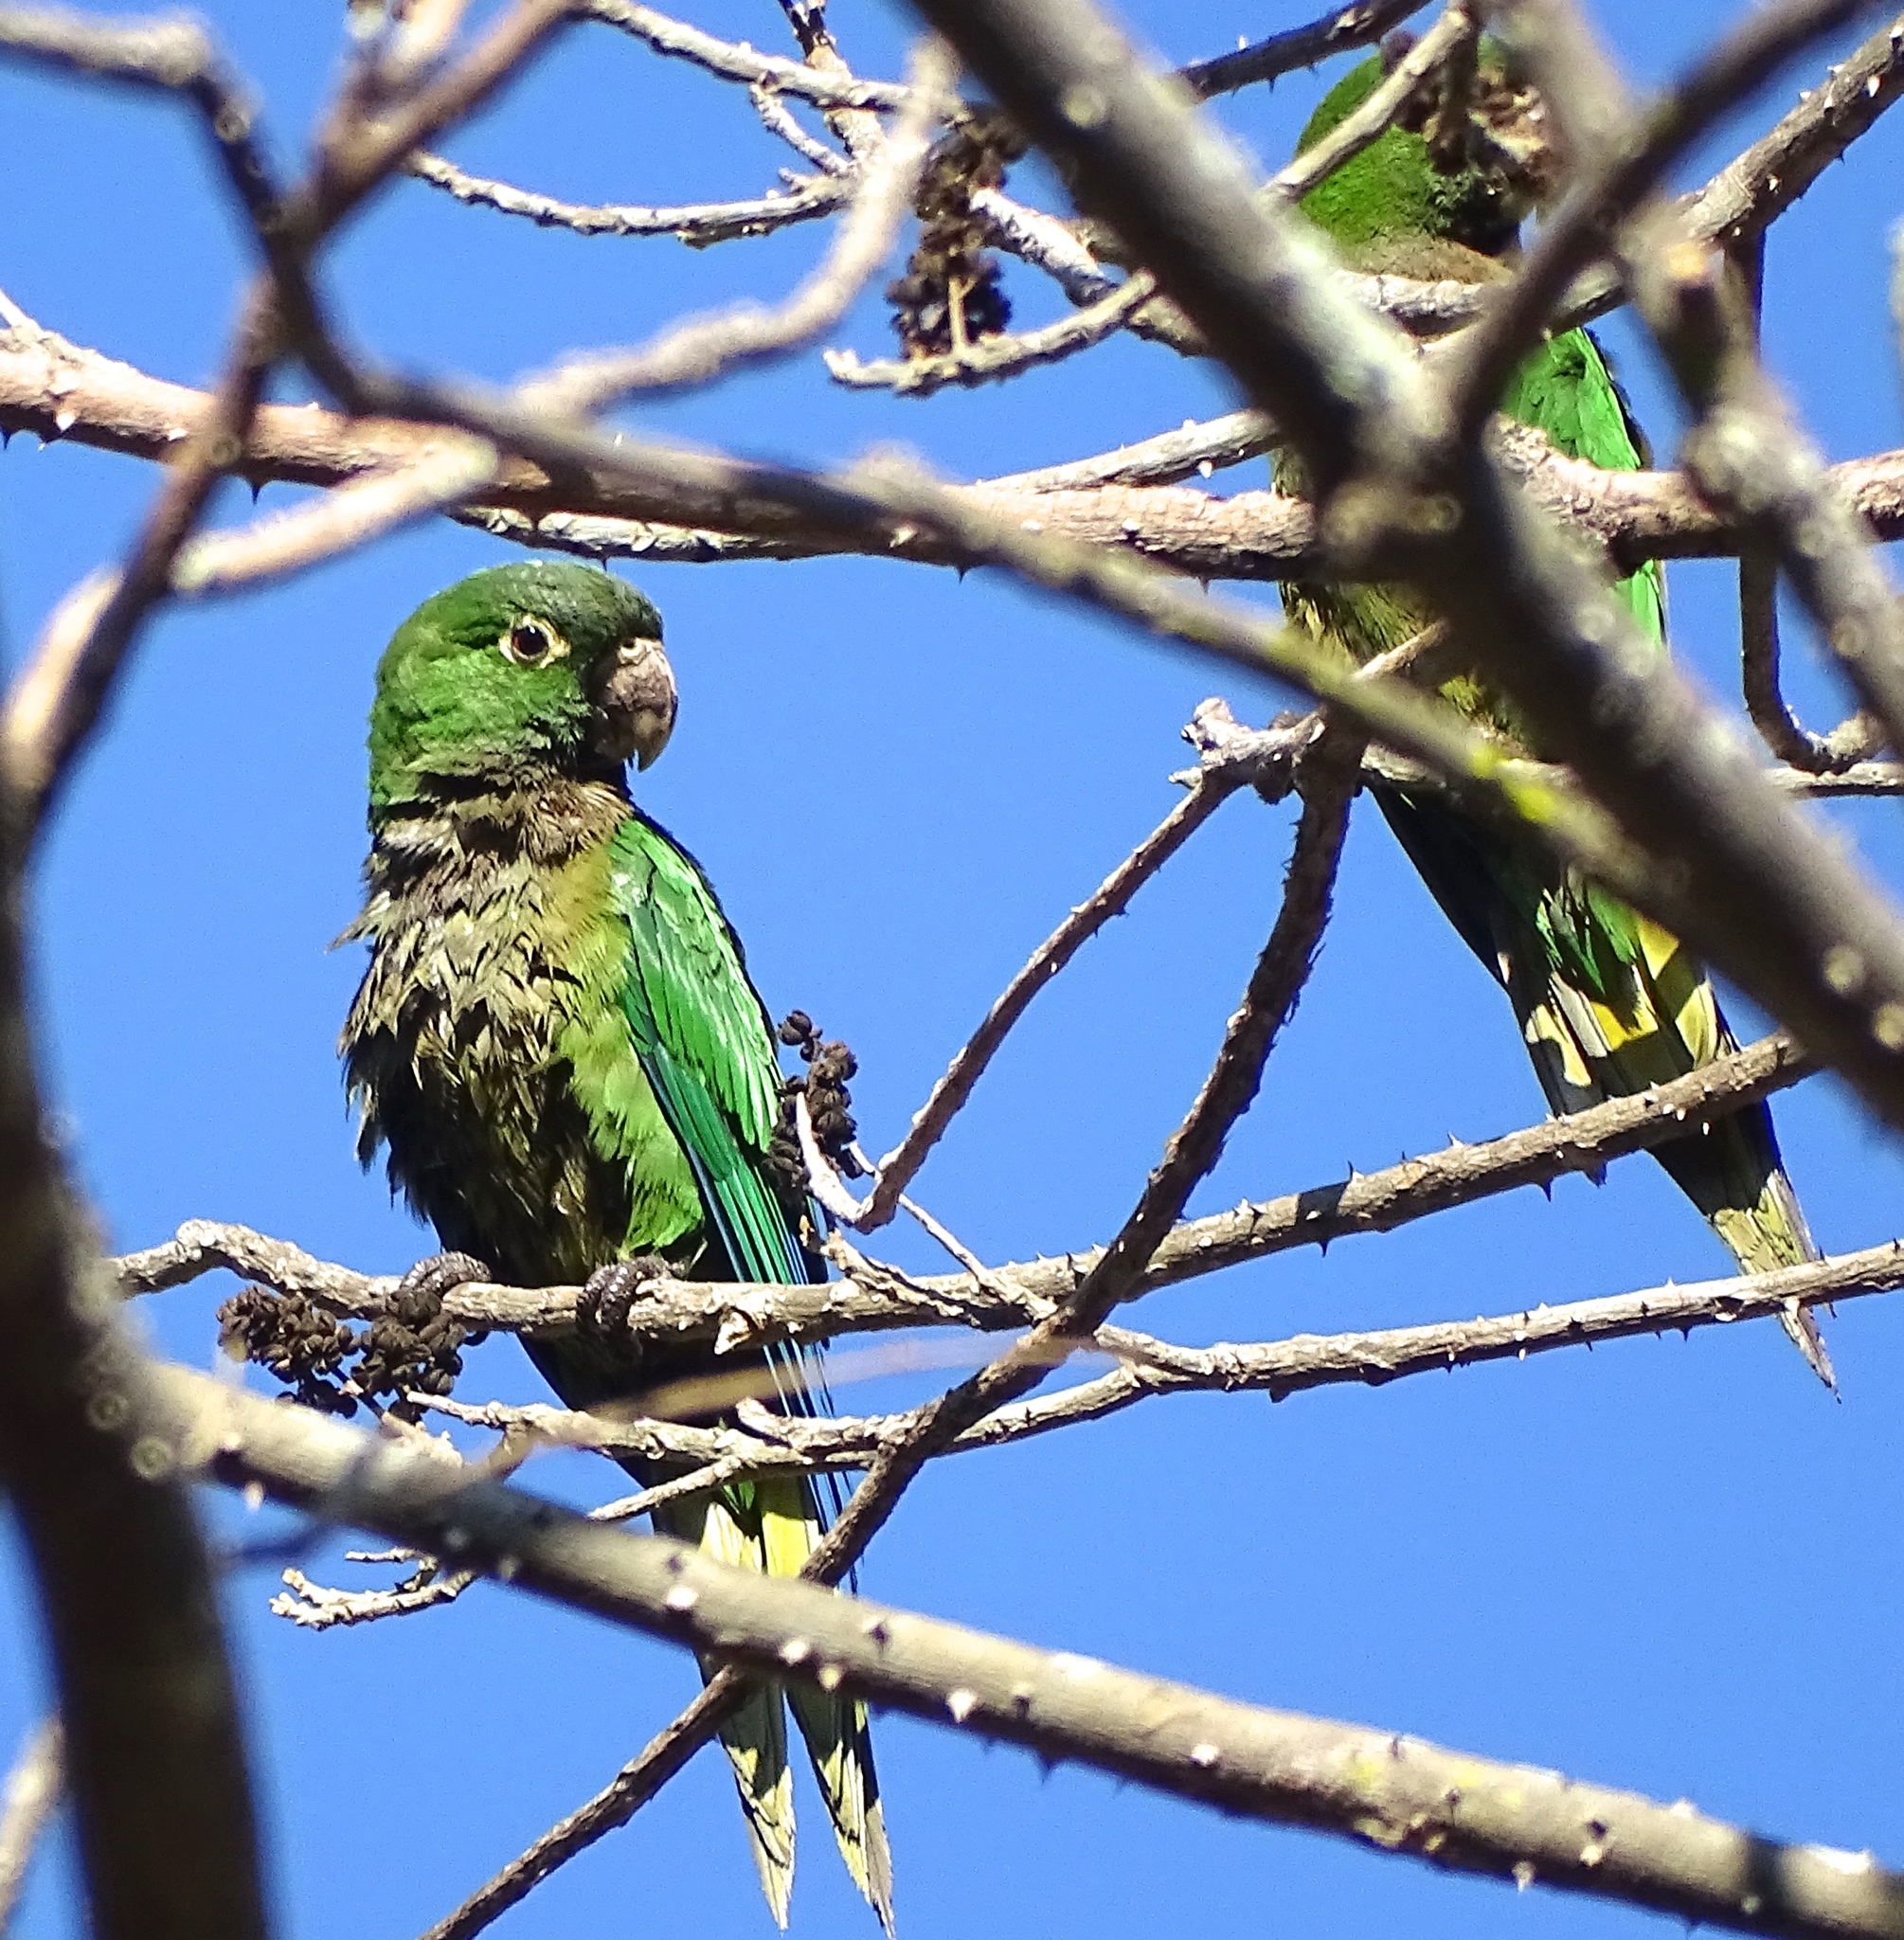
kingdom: Animalia
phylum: Chordata
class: Aves
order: Psittaciformes
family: Psittacidae
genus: Aratinga
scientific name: Aratinga nana
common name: Olive-throated parakeet
